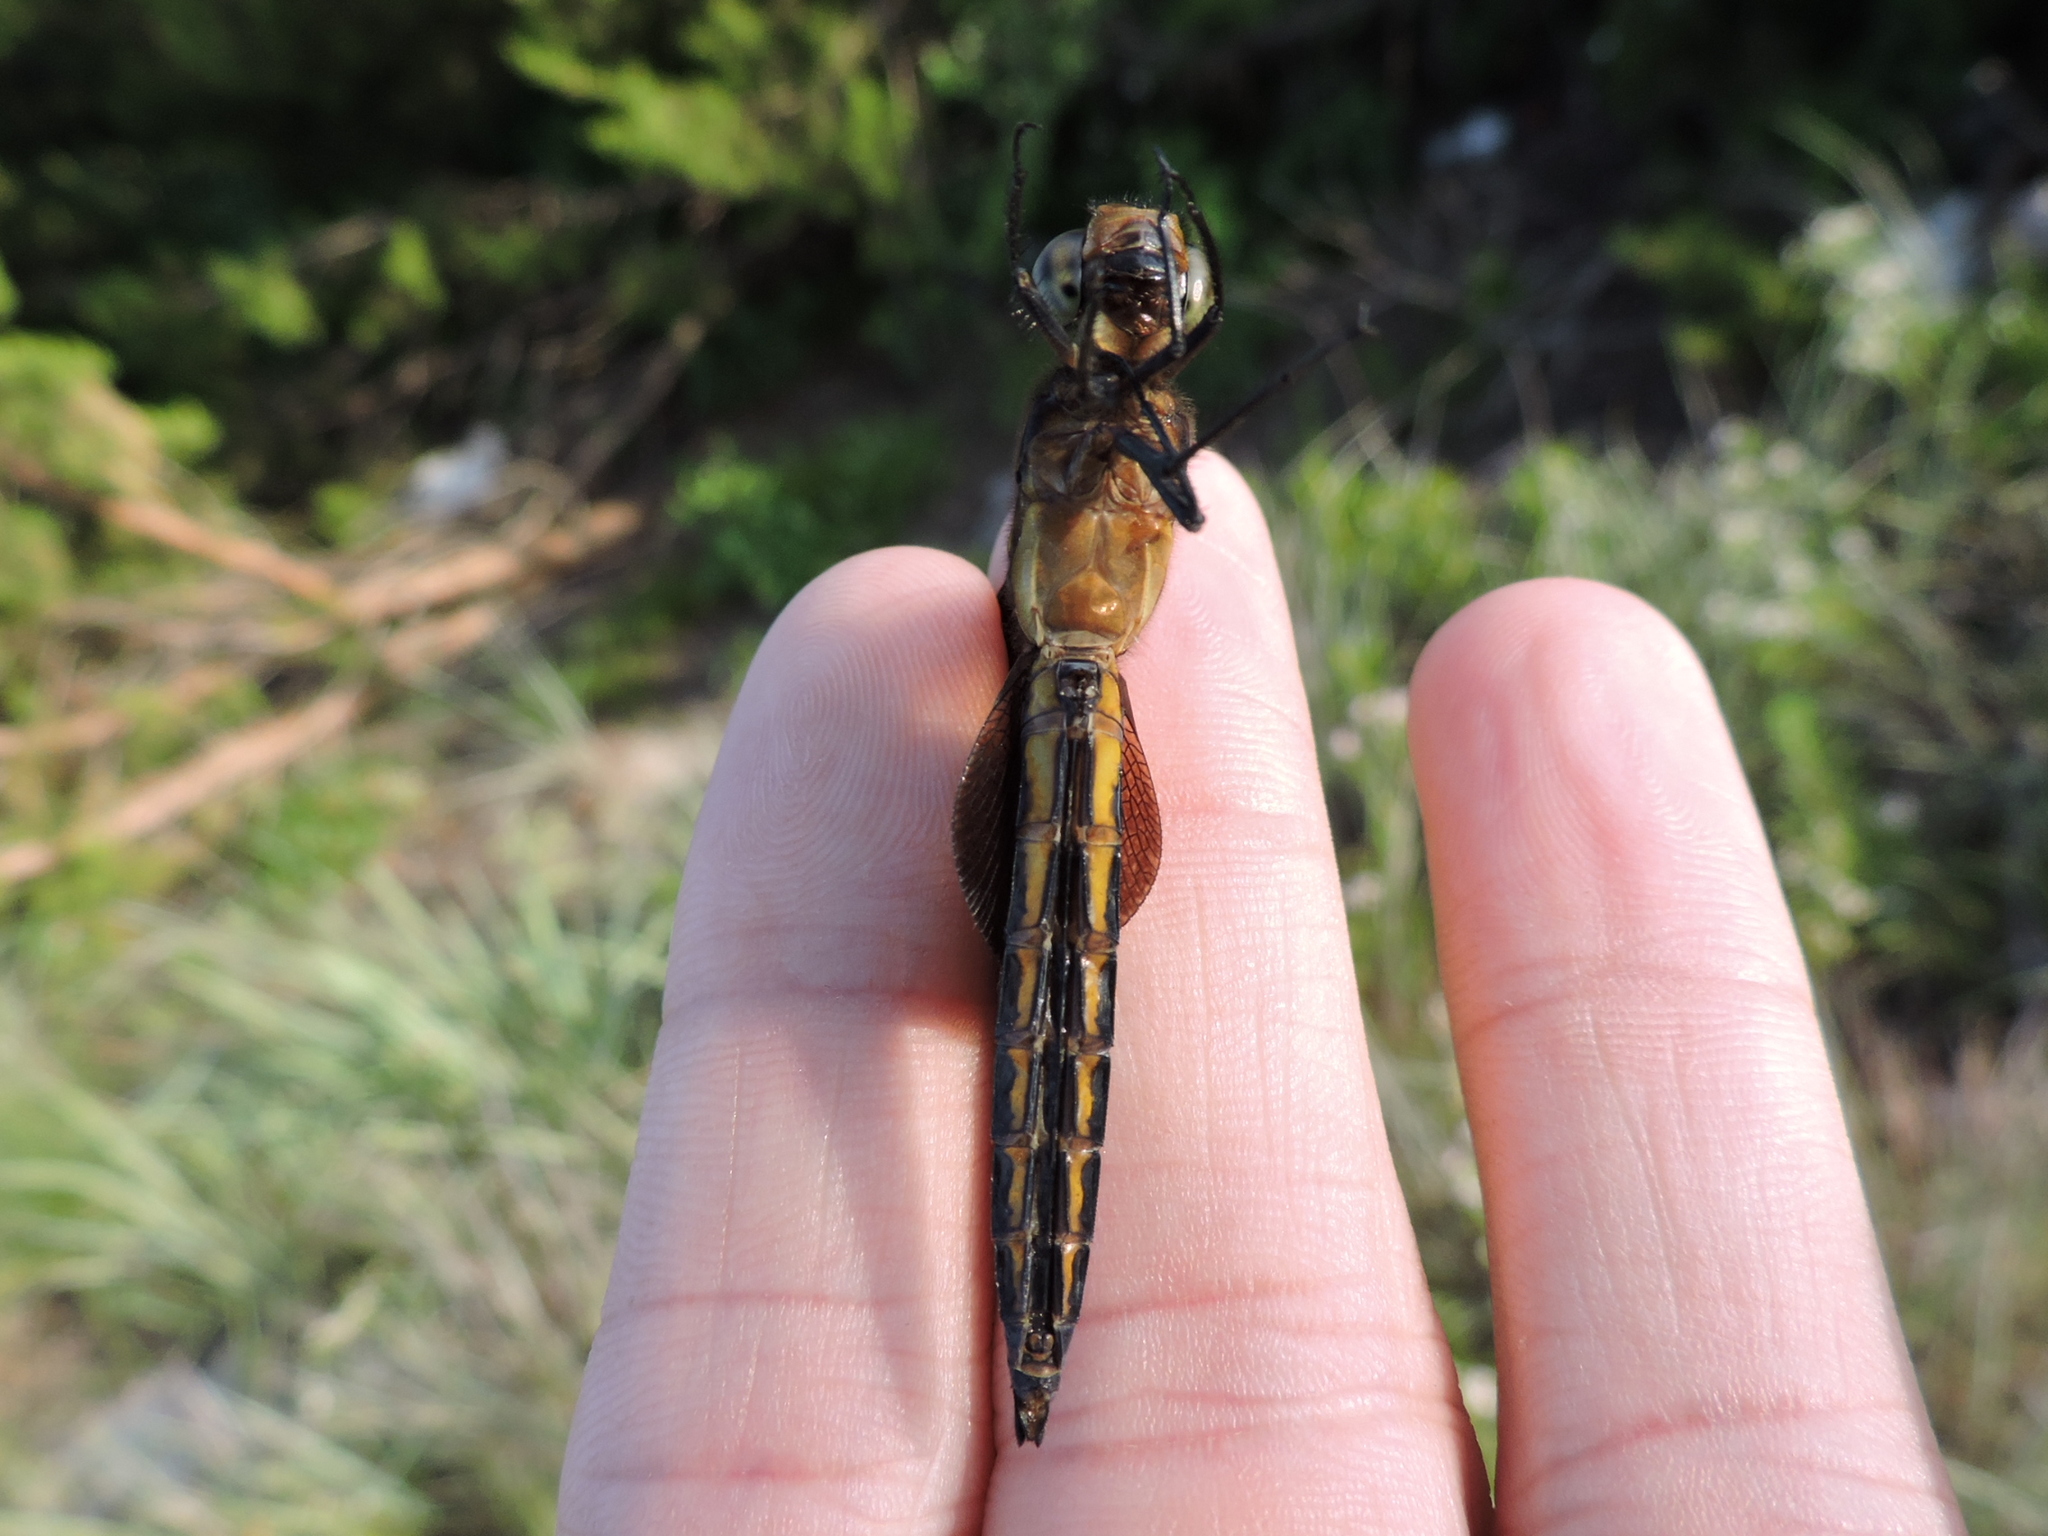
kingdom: Animalia
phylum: Arthropoda
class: Insecta
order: Odonata
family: Libellulidae
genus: Libellula
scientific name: Libellula luctuosa
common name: Widow skimmer
